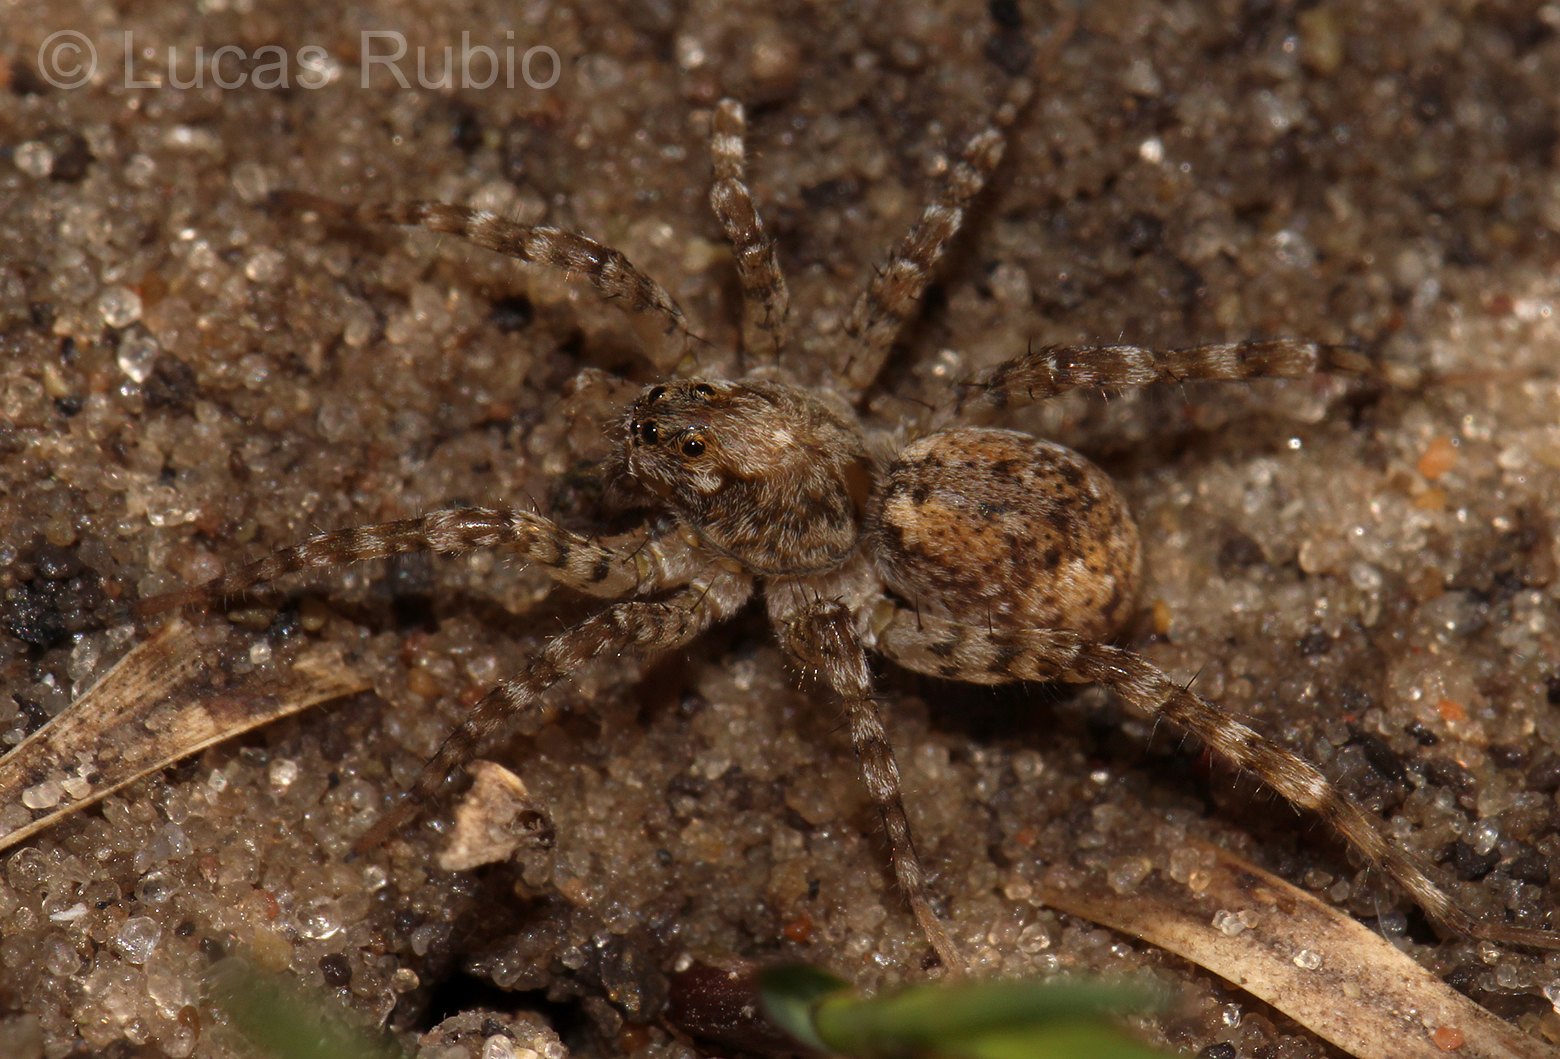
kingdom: Animalia
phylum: Arthropoda
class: Arachnida
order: Araneae
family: Lycosidae
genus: Paratrochosina
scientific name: Paratrochosina amica
